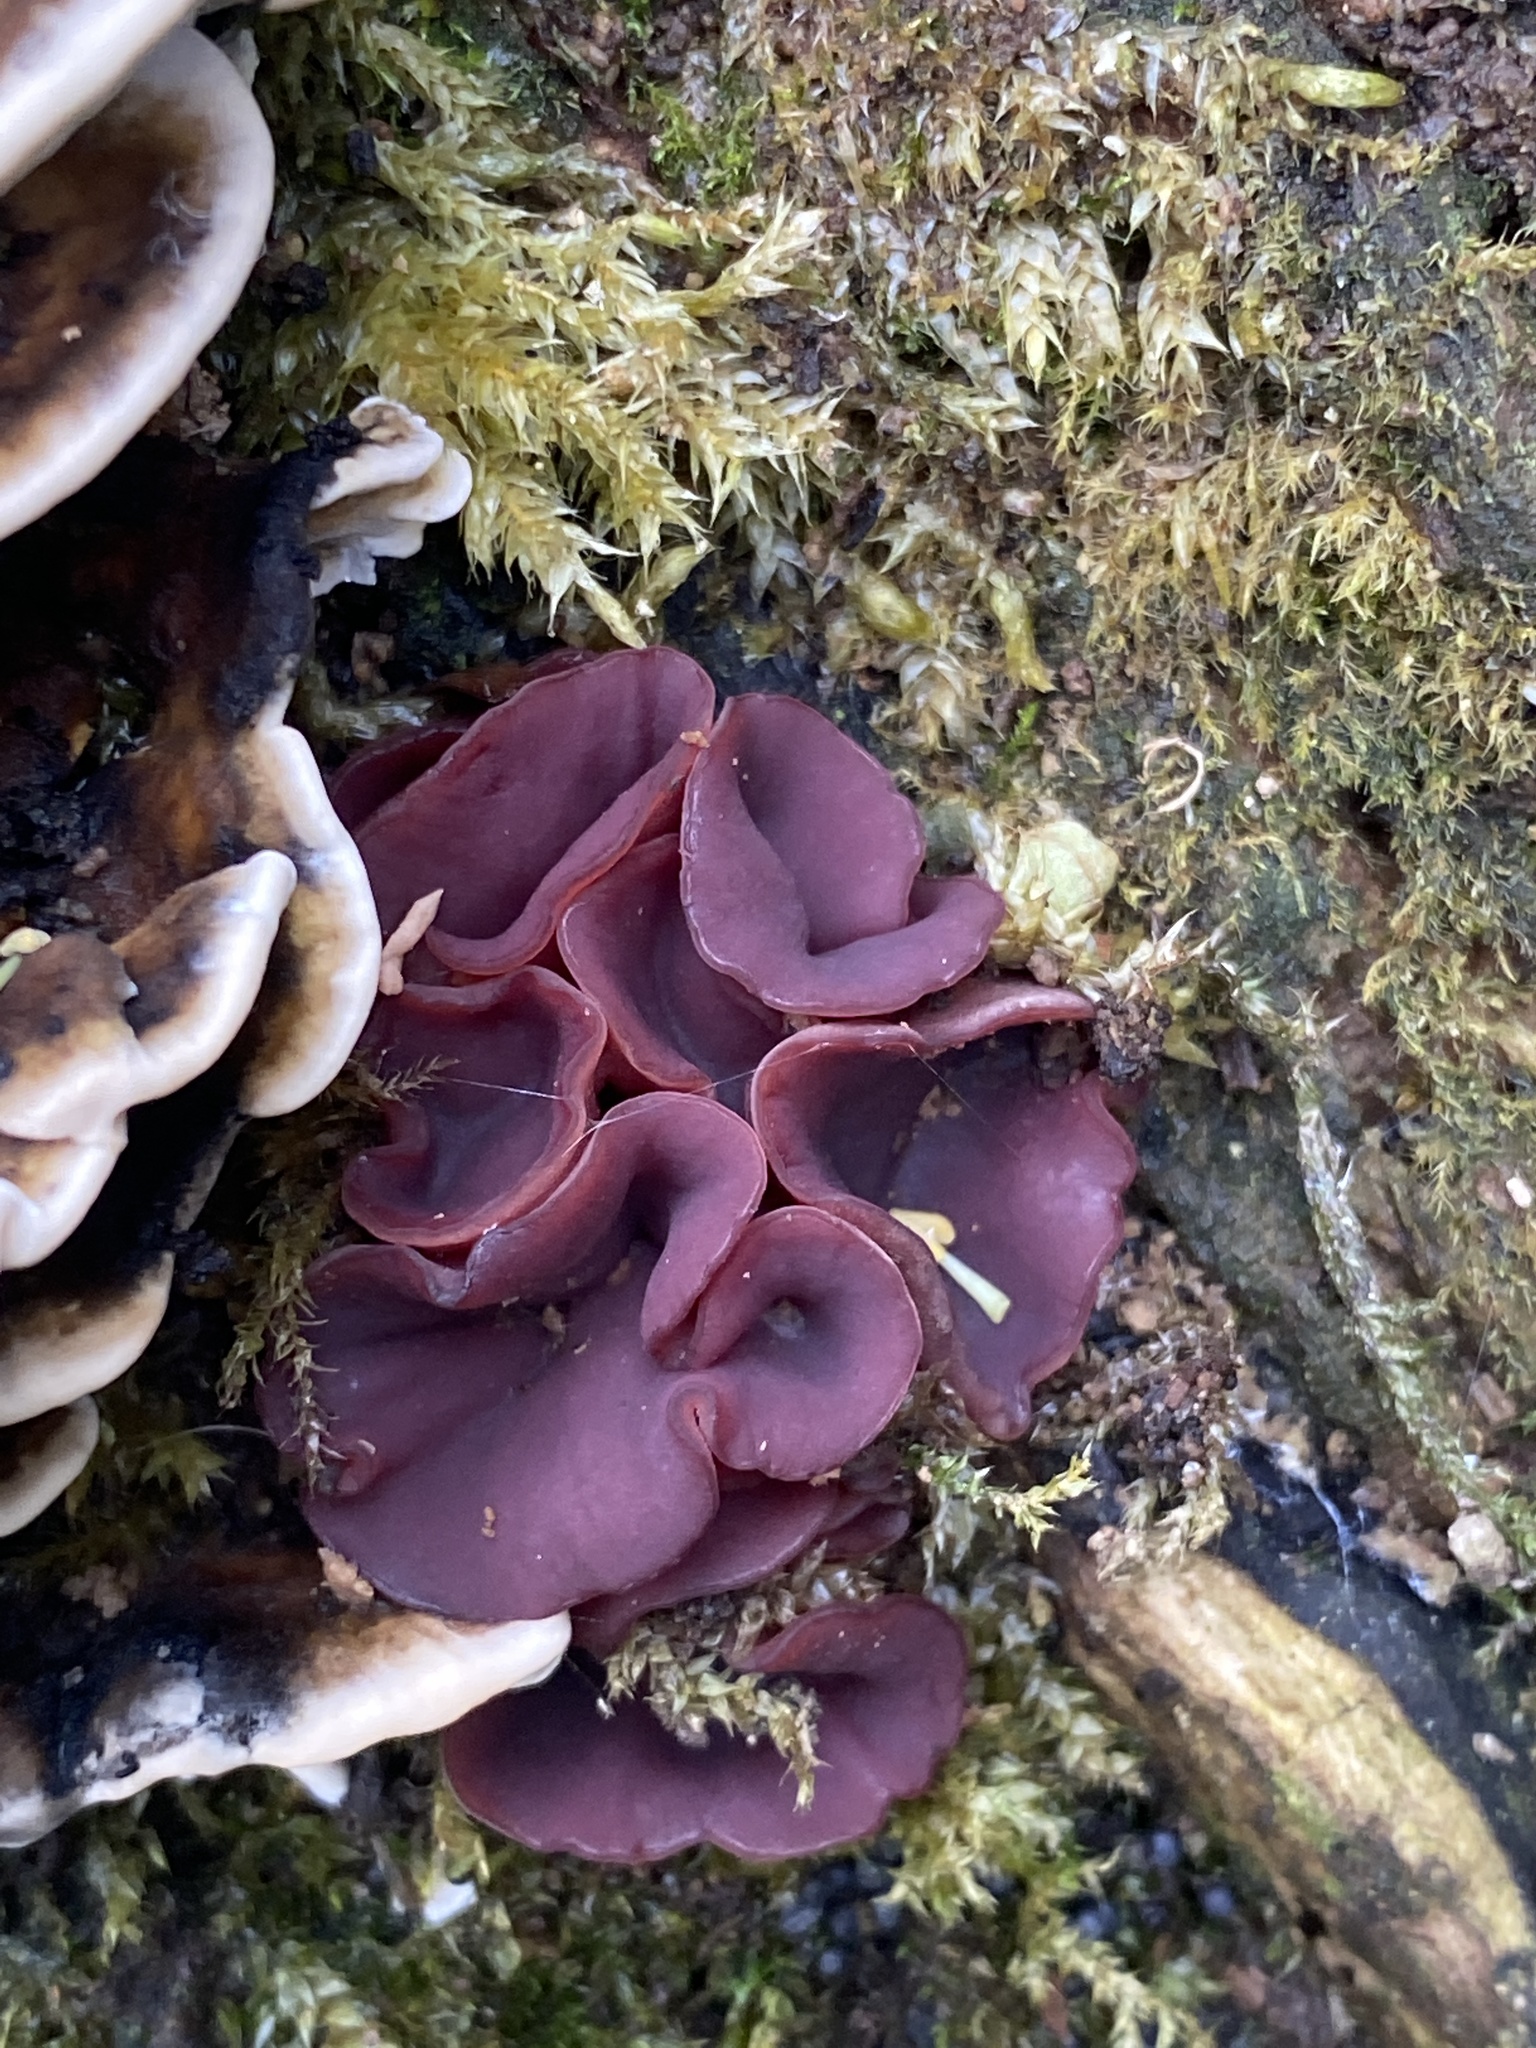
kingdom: Fungi
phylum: Ascomycota
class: Leotiomycetes
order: Helotiales
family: Gelatinodiscaceae
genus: Ascocoryne
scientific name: Ascocoryne sarcoides
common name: Purple jellydisc
